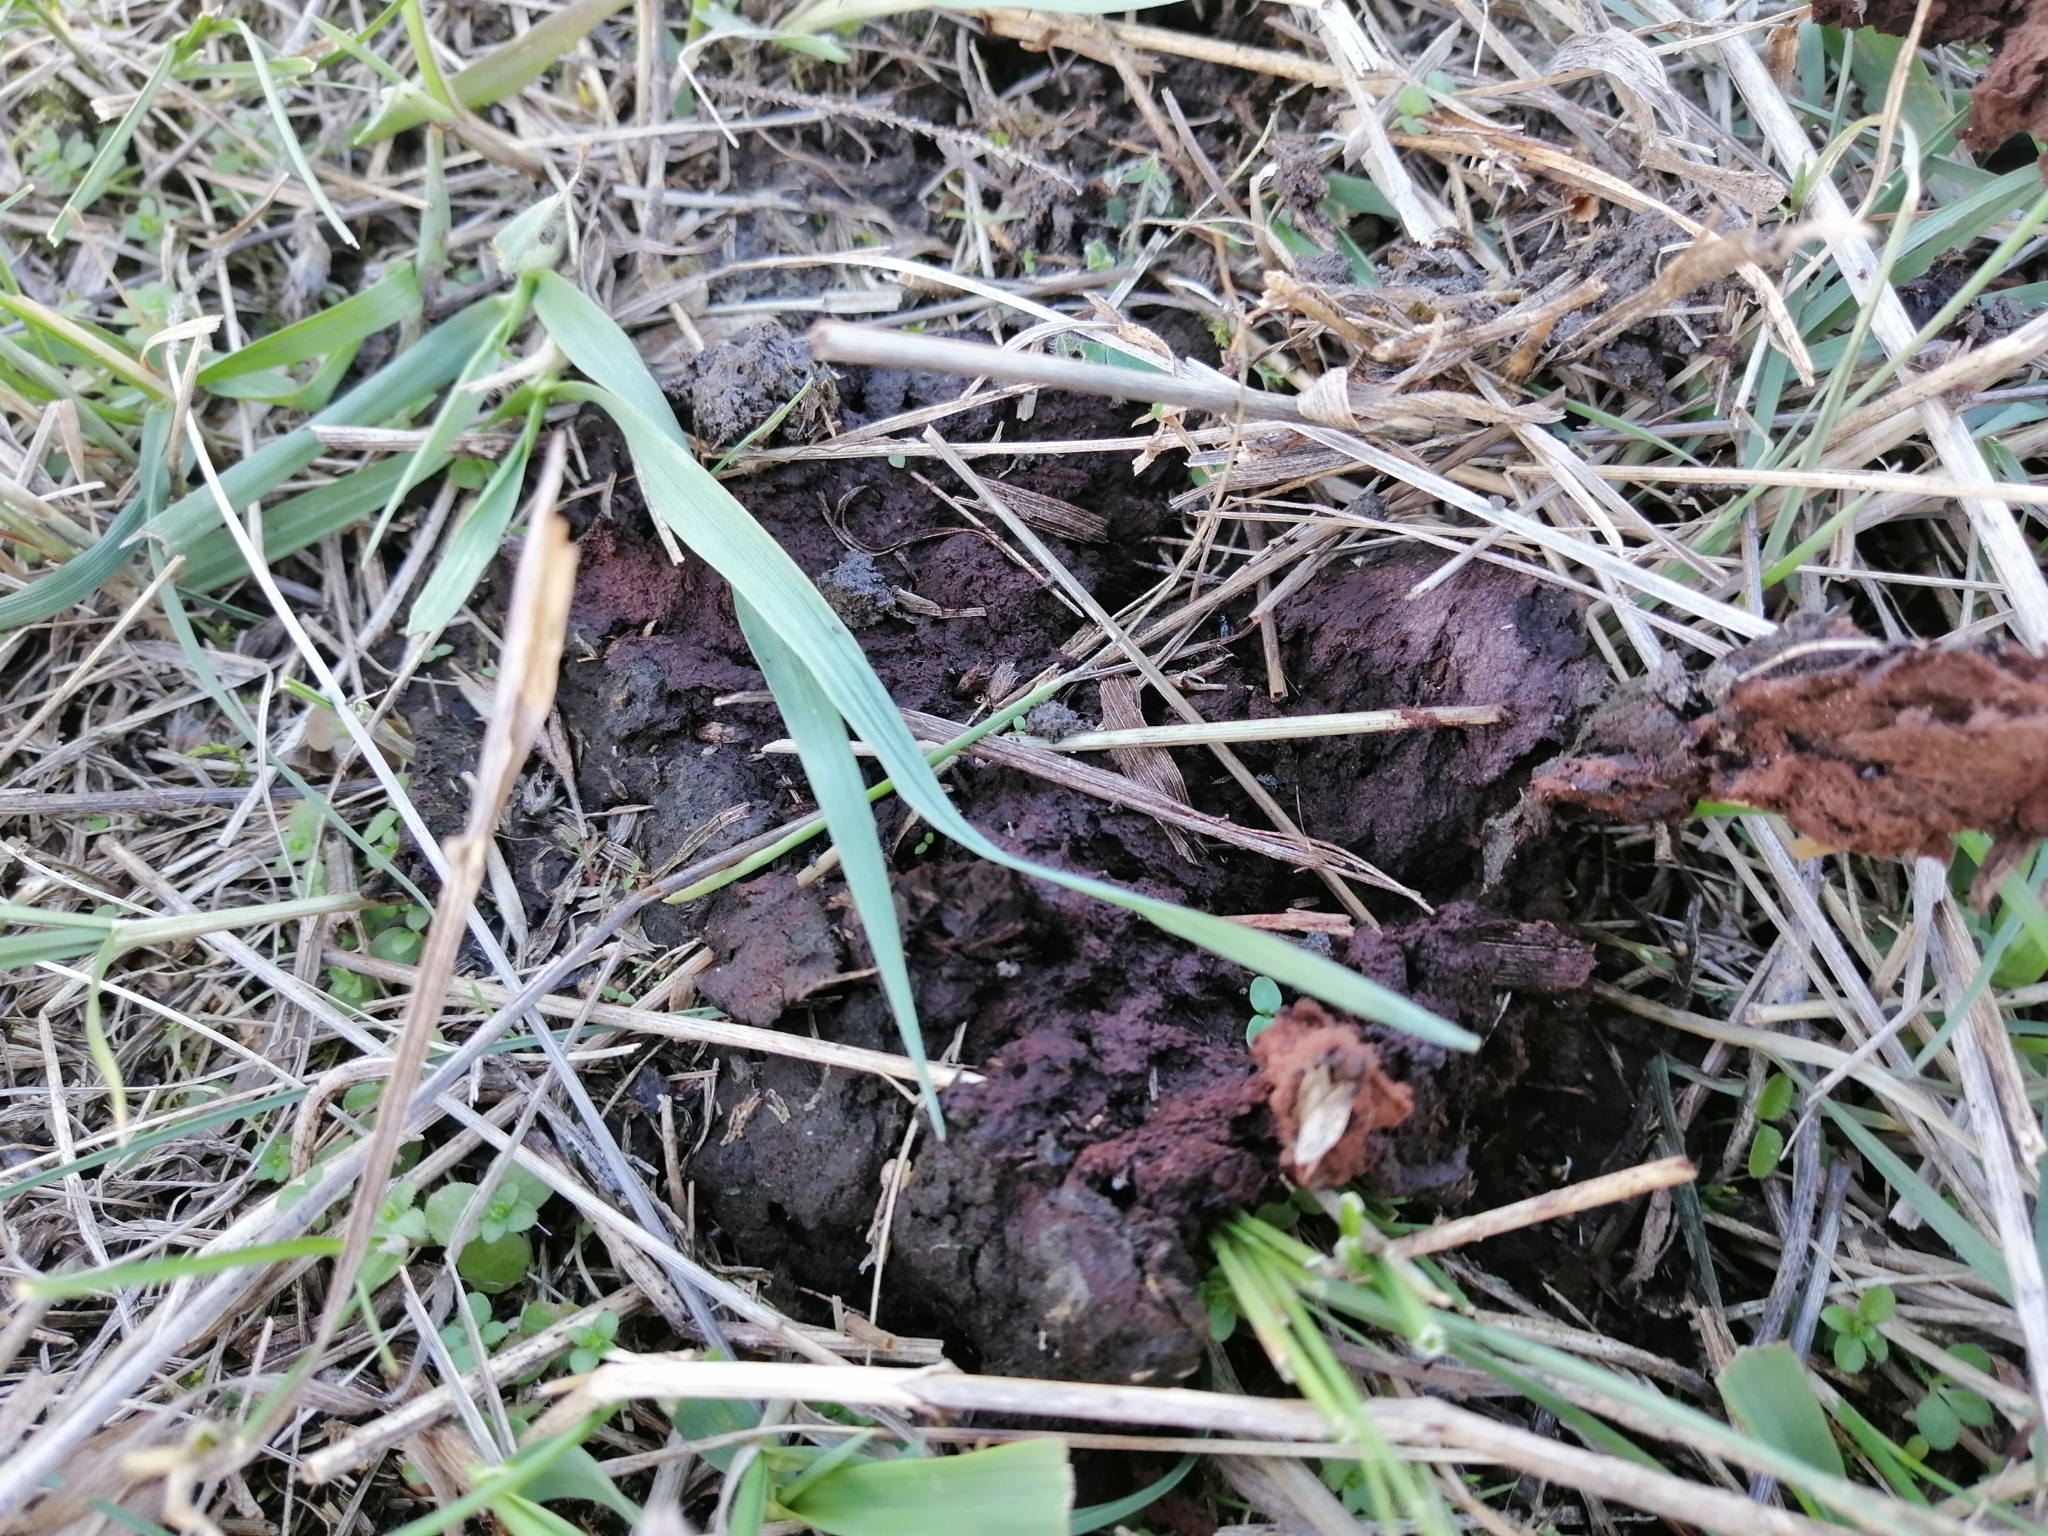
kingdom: Fungi
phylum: Basidiomycota
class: Agaricomycetes
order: Agaricales
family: Lycoperdaceae
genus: Bovistella
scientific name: Bovistella utriformis
